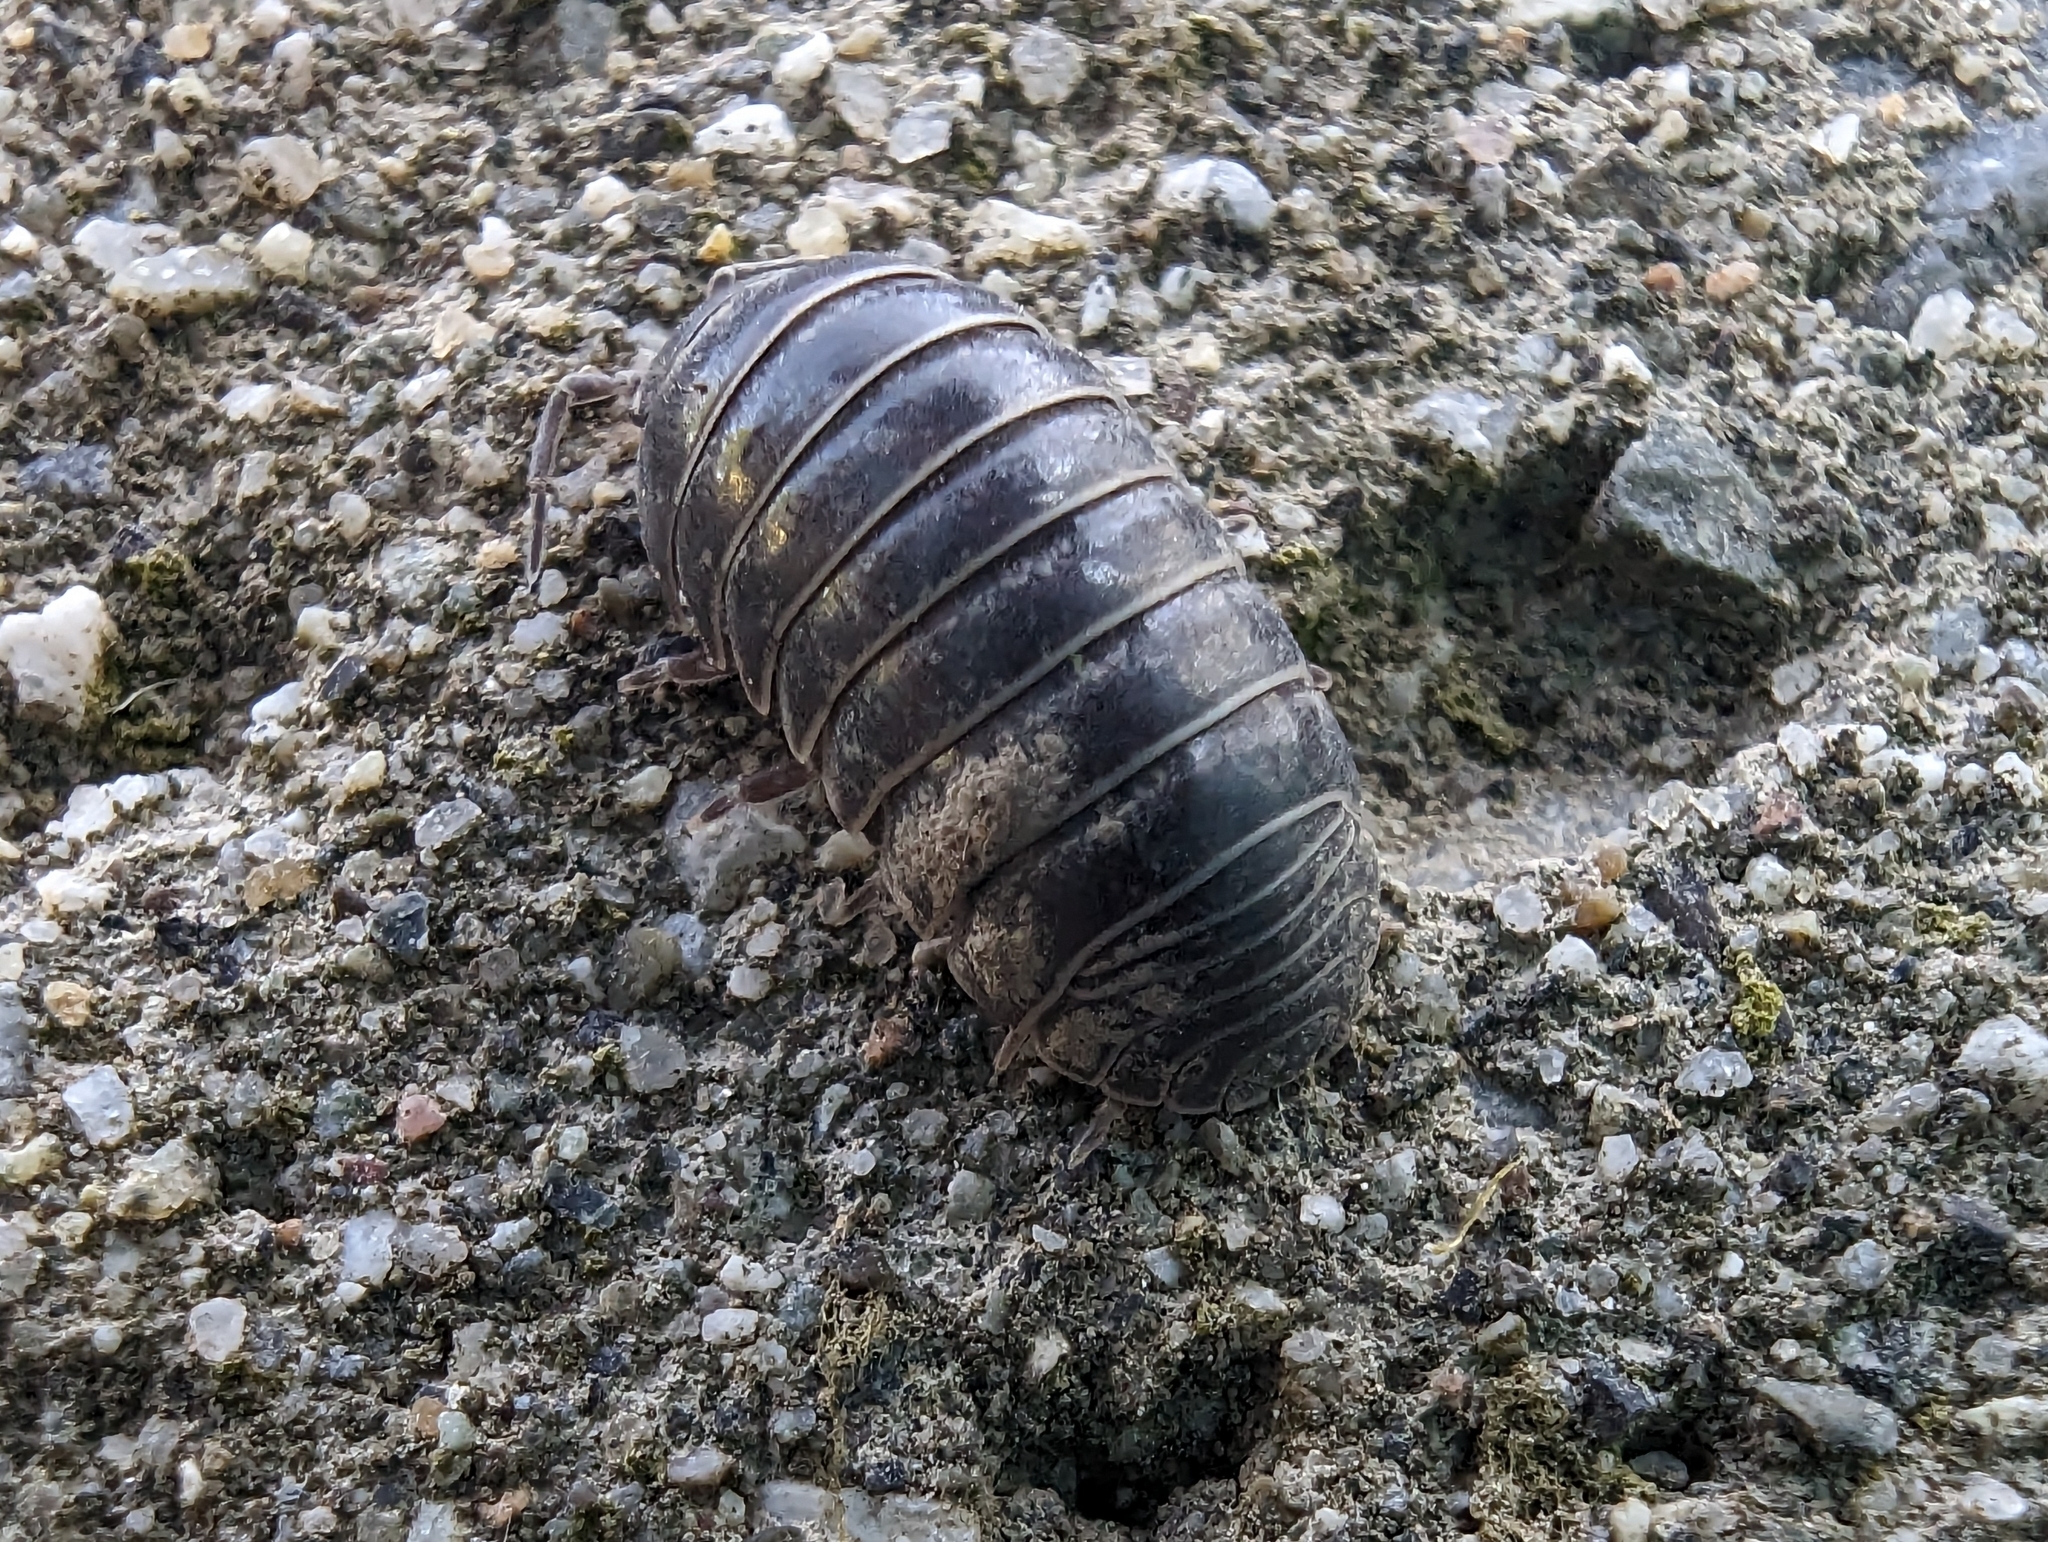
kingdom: Animalia
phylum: Arthropoda
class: Malacostraca
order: Isopoda
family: Armadillidiidae
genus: Armadillidium
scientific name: Armadillidium vulgare
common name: Common pill woodlouse
